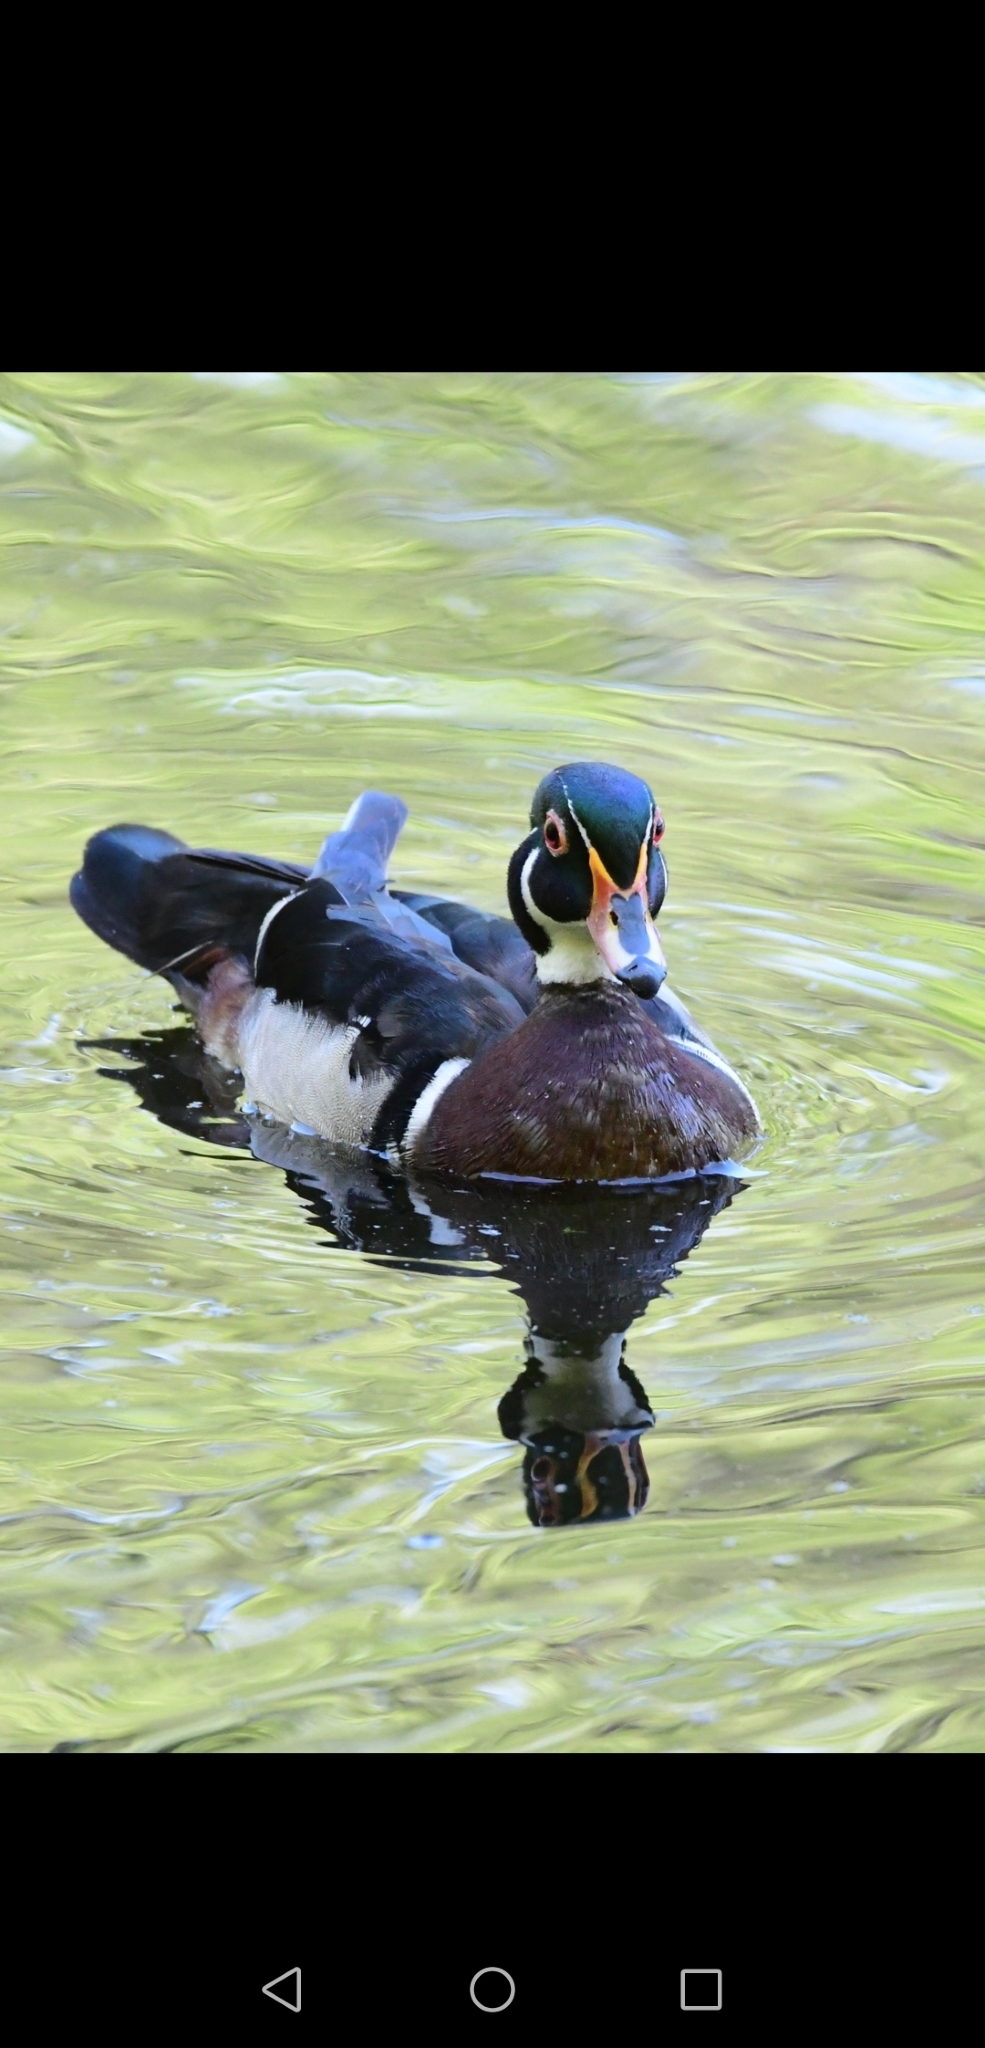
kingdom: Animalia
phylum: Chordata
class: Aves
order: Anseriformes
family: Anatidae
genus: Aix
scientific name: Aix sponsa
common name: Wood duck
